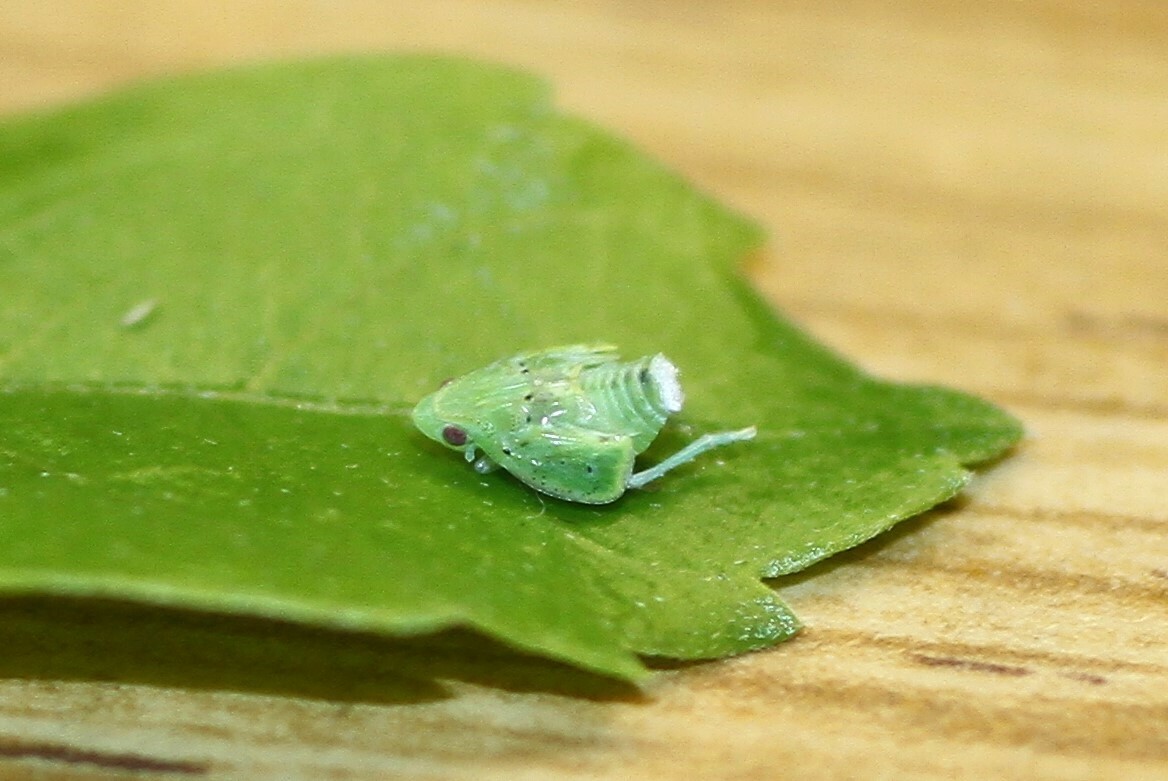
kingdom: Animalia
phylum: Arthropoda
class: Insecta
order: Hemiptera
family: Flatidae
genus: Siphanta
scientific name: Siphanta acuta
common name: Torpedo bug
